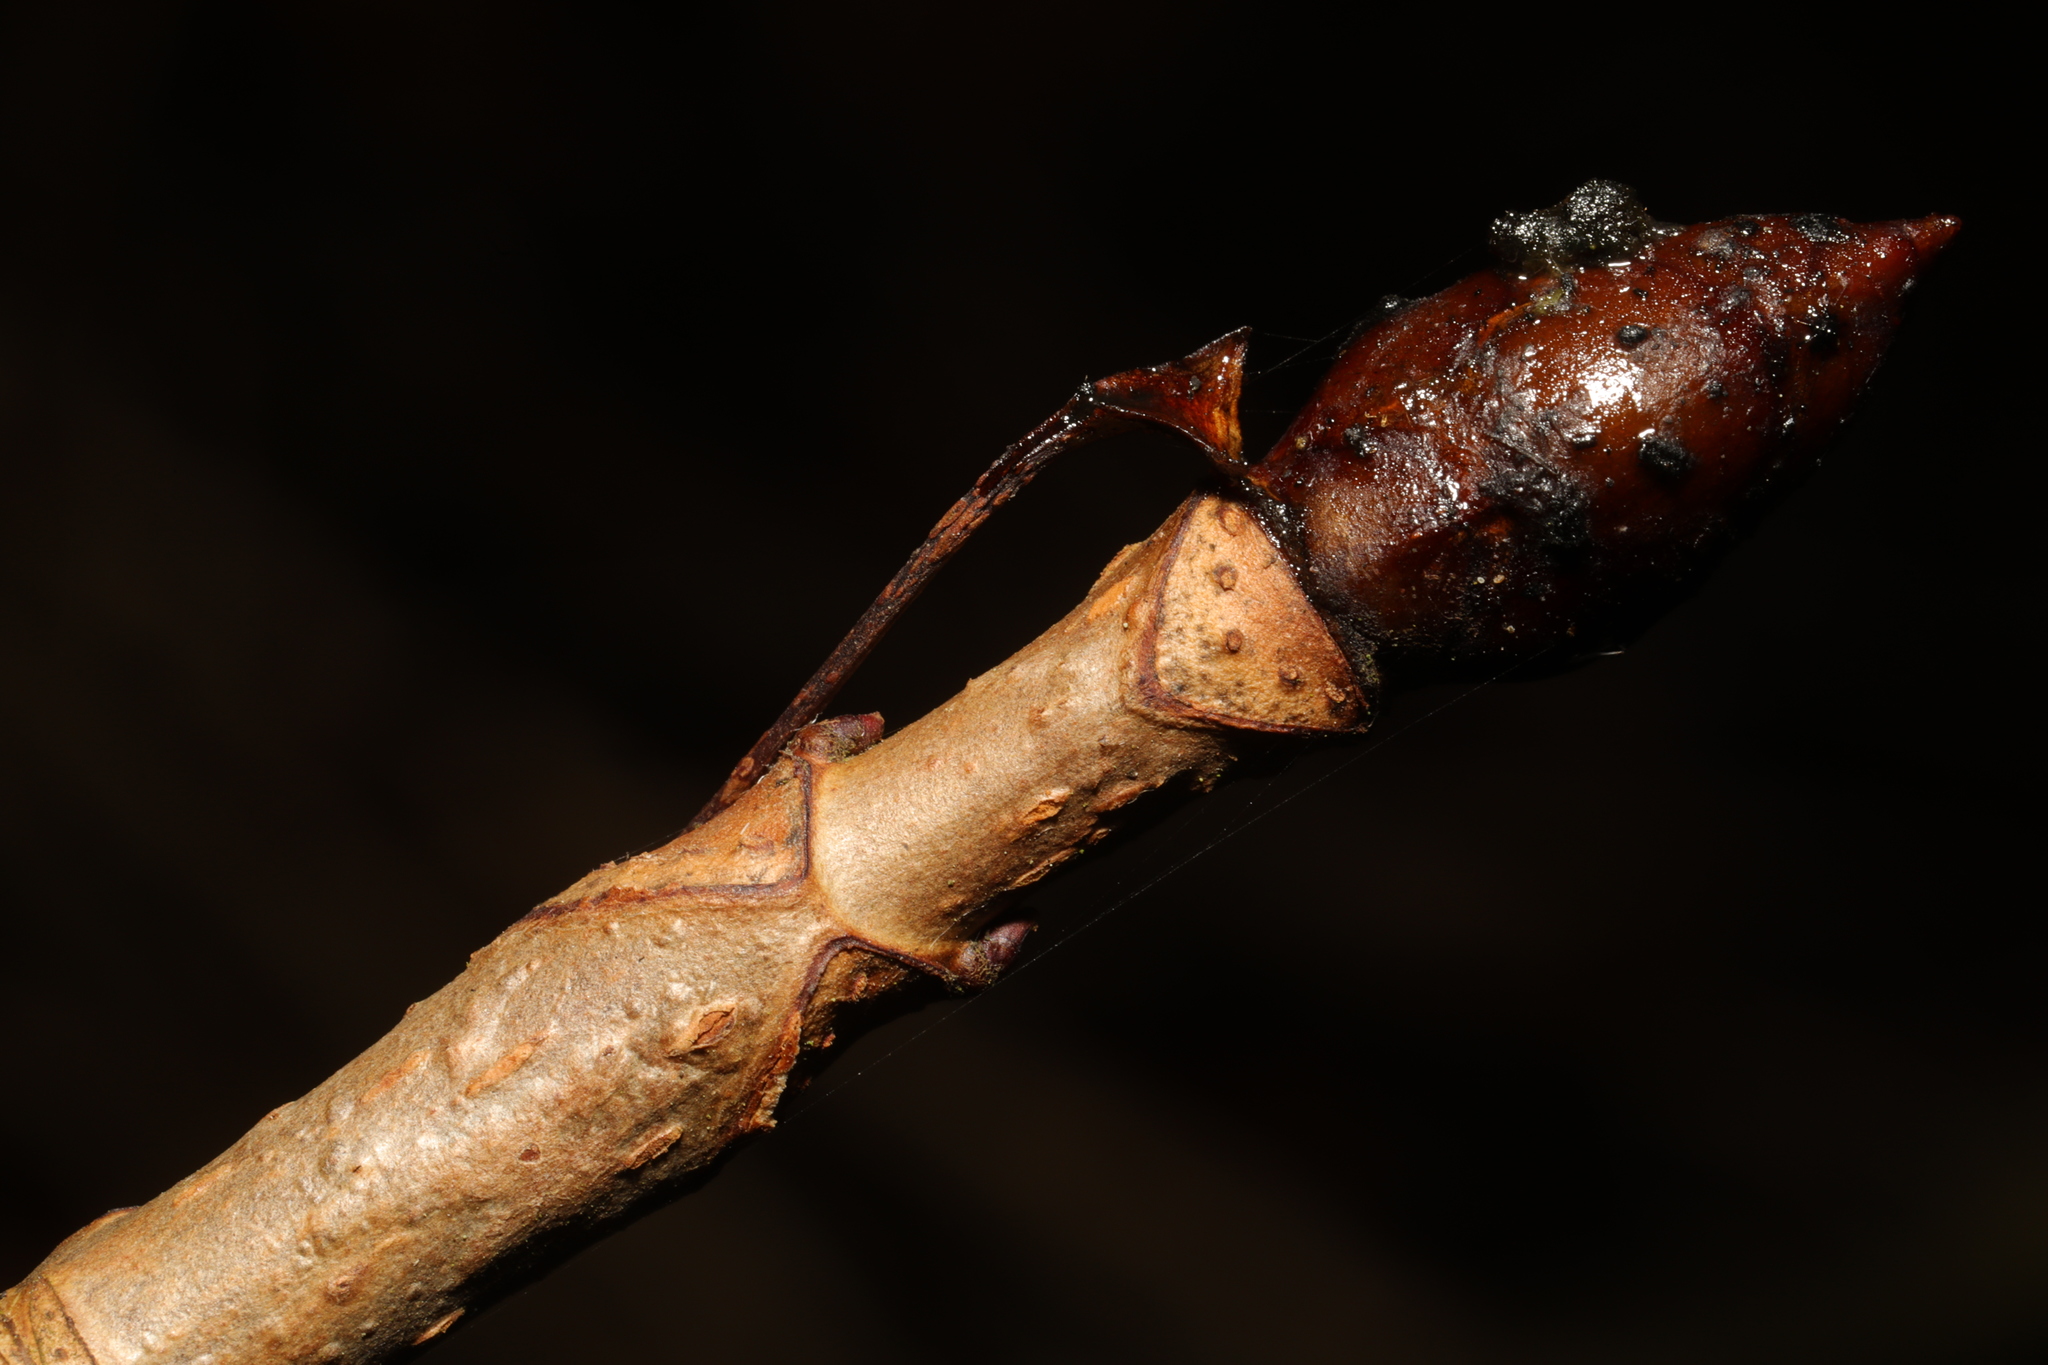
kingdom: Plantae
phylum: Tracheophyta
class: Magnoliopsida
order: Sapindales
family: Sapindaceae
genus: Aesculus
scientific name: Aesculus hippocastanum
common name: Horse-chestnut
